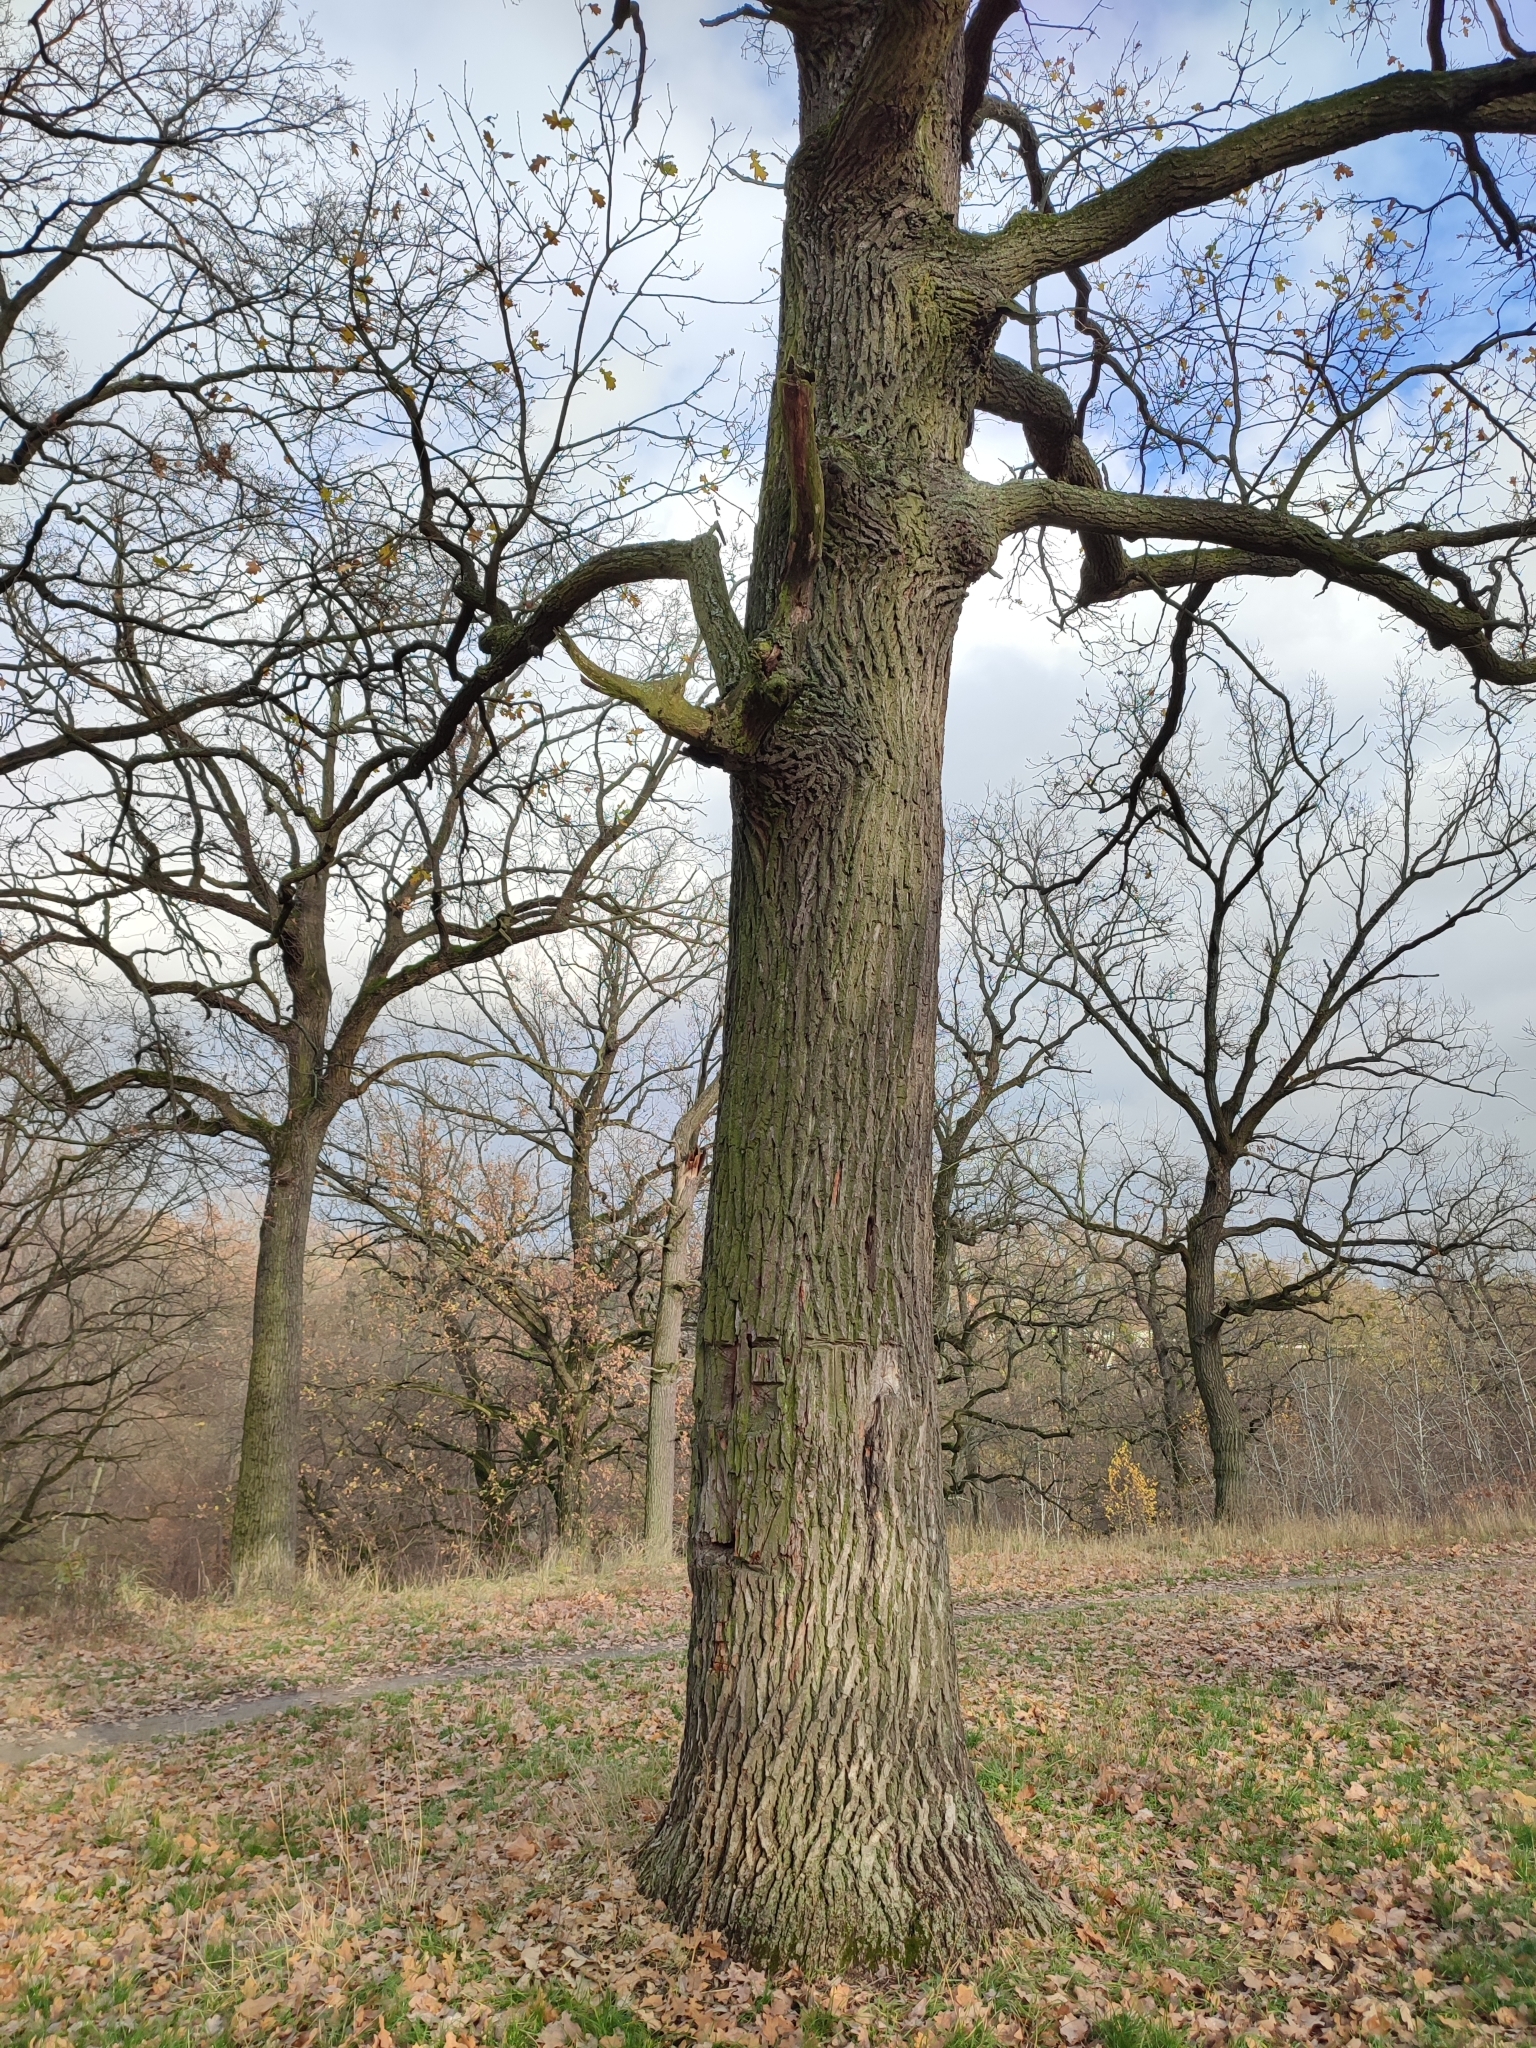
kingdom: Plantae
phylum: Tracheophyta
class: Magnoliopsida
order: Fagales
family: Fagaceae
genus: Quercus
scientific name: Quercus robur
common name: Pedunculate oak
